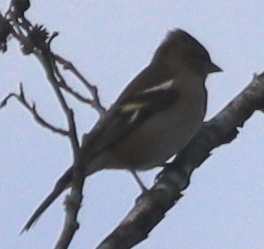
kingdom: Animalia
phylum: Chordata
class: Aves
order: Passeriformes
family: Fringillidae
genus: Fringilla
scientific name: Fringilla coelebs
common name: Common chaffinch
